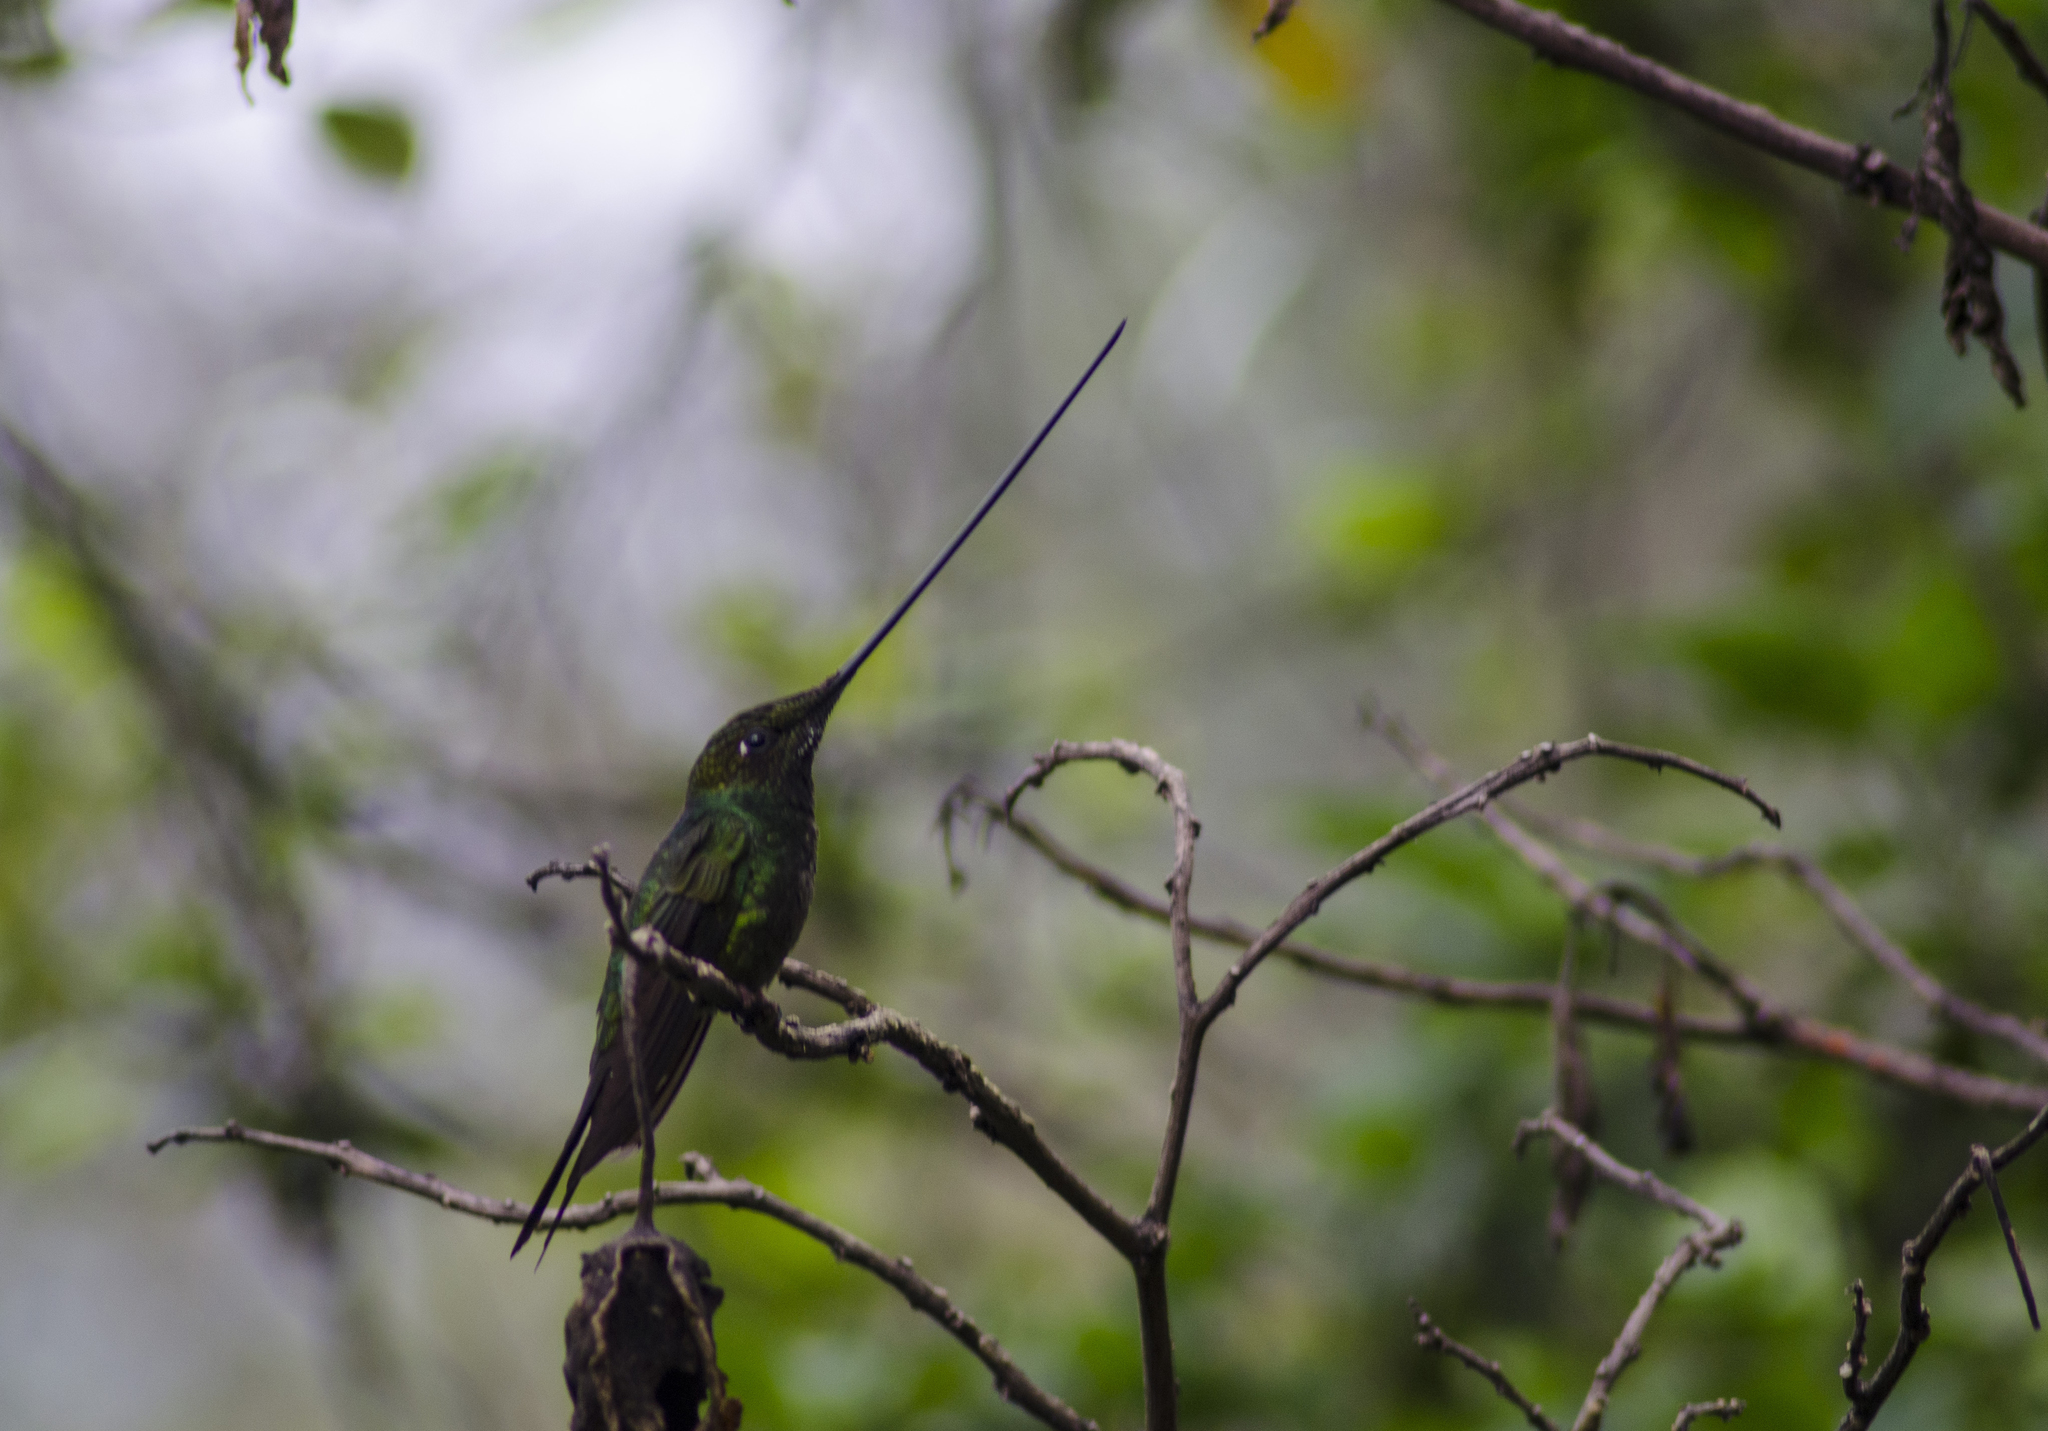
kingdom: Animalia
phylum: Chordata
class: Aves
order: Apodiformes
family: Trochilidae
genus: Ensifera
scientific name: Ensifera ensifera
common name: Sword-billed hummingbird
